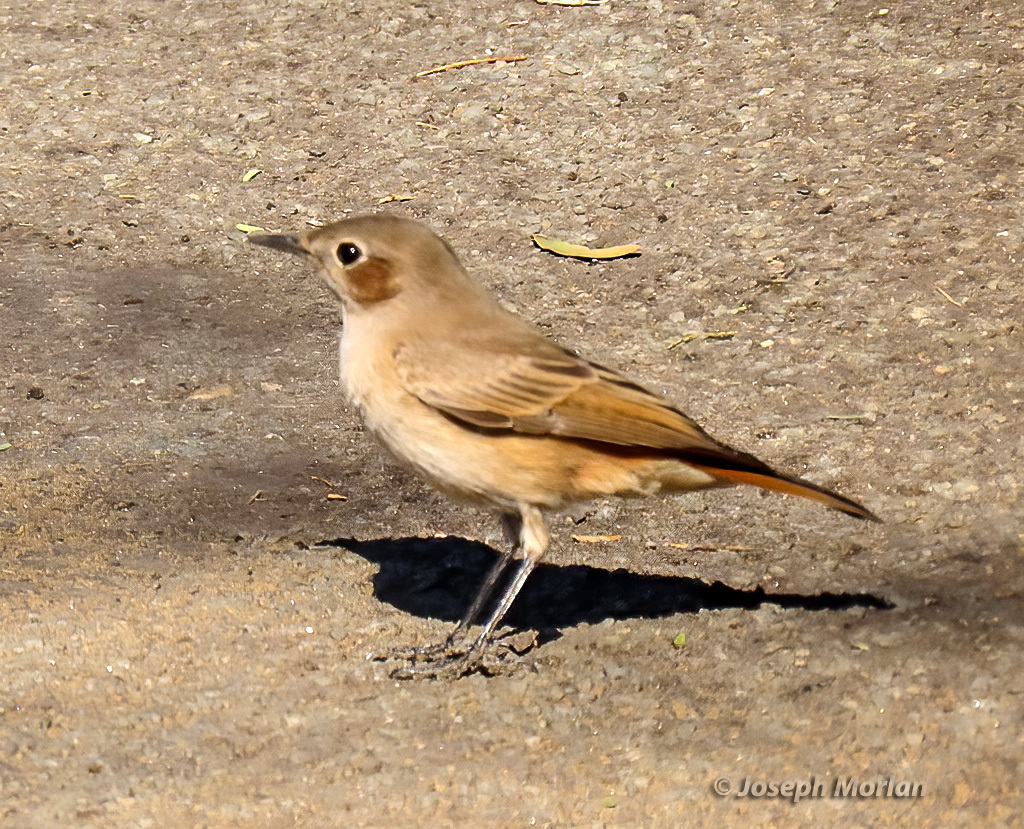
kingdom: Animalia
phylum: Chordata
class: Aves
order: Passeriformes
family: Muscicapidae
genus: Oenanthe
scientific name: Oenanthe familiaris
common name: Familiar chat
